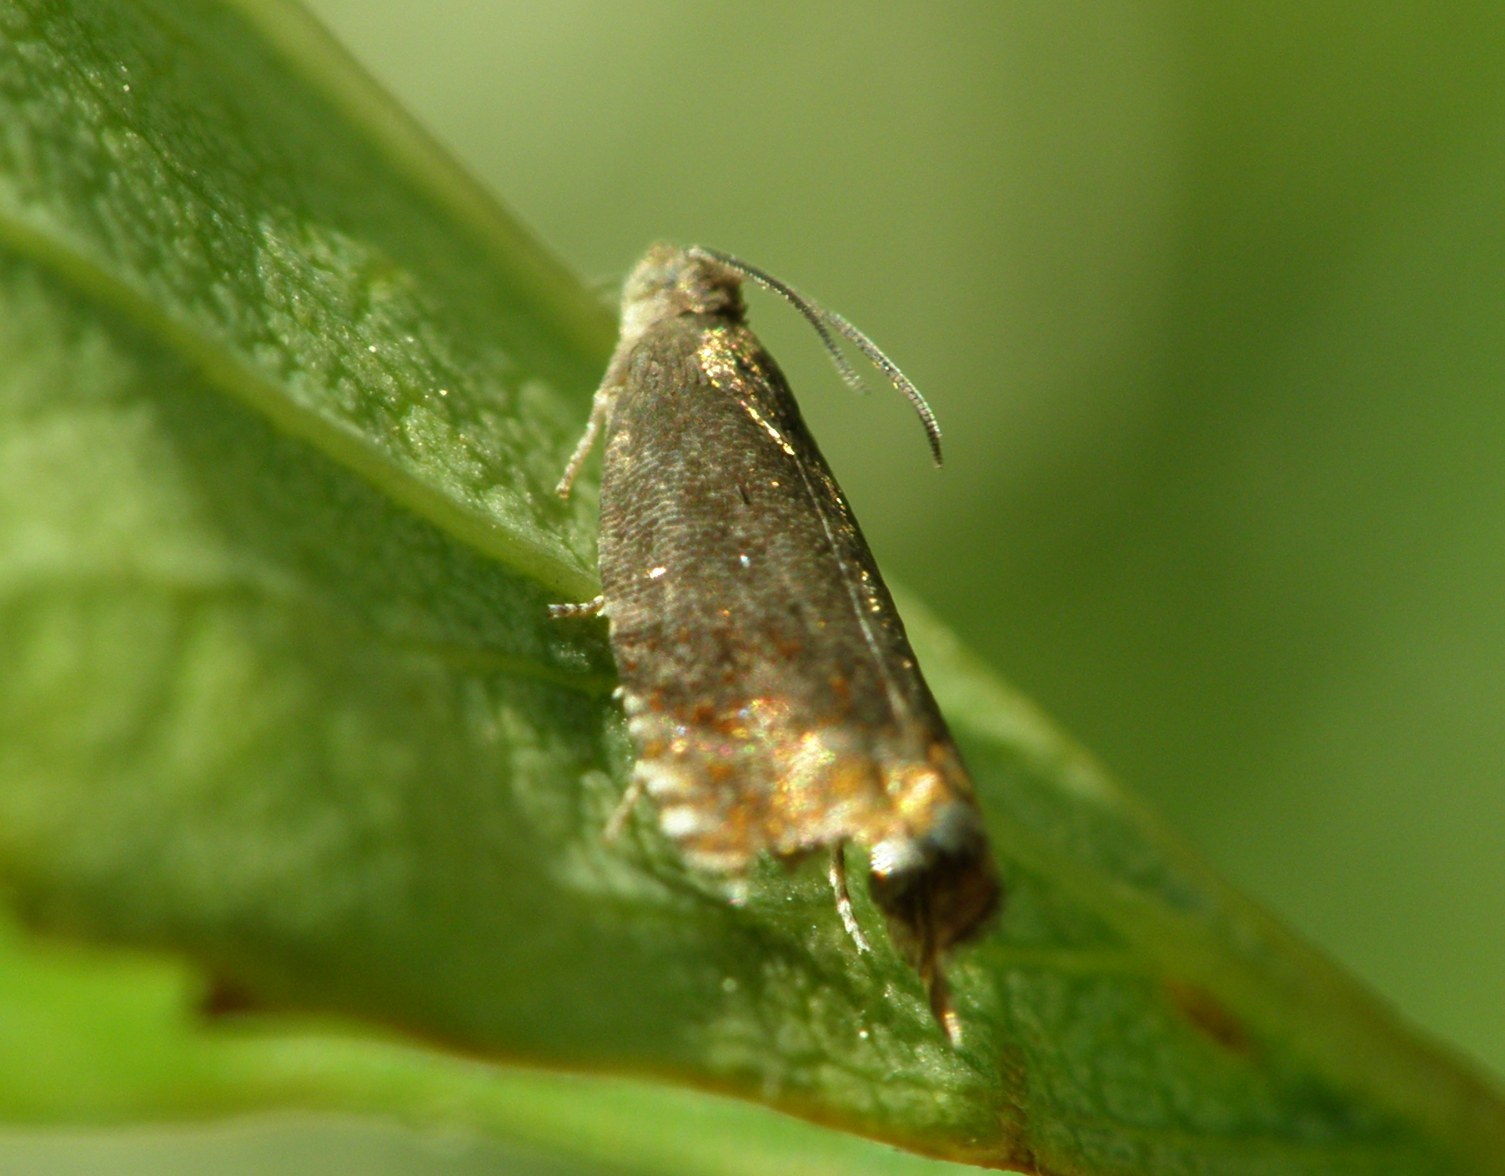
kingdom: Animalia
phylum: Arthropoda
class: Insecta
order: Lepidoptera
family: Tortricidae
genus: Pammene
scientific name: Pammene rhediella
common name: Fruitlet-mining tortrix
